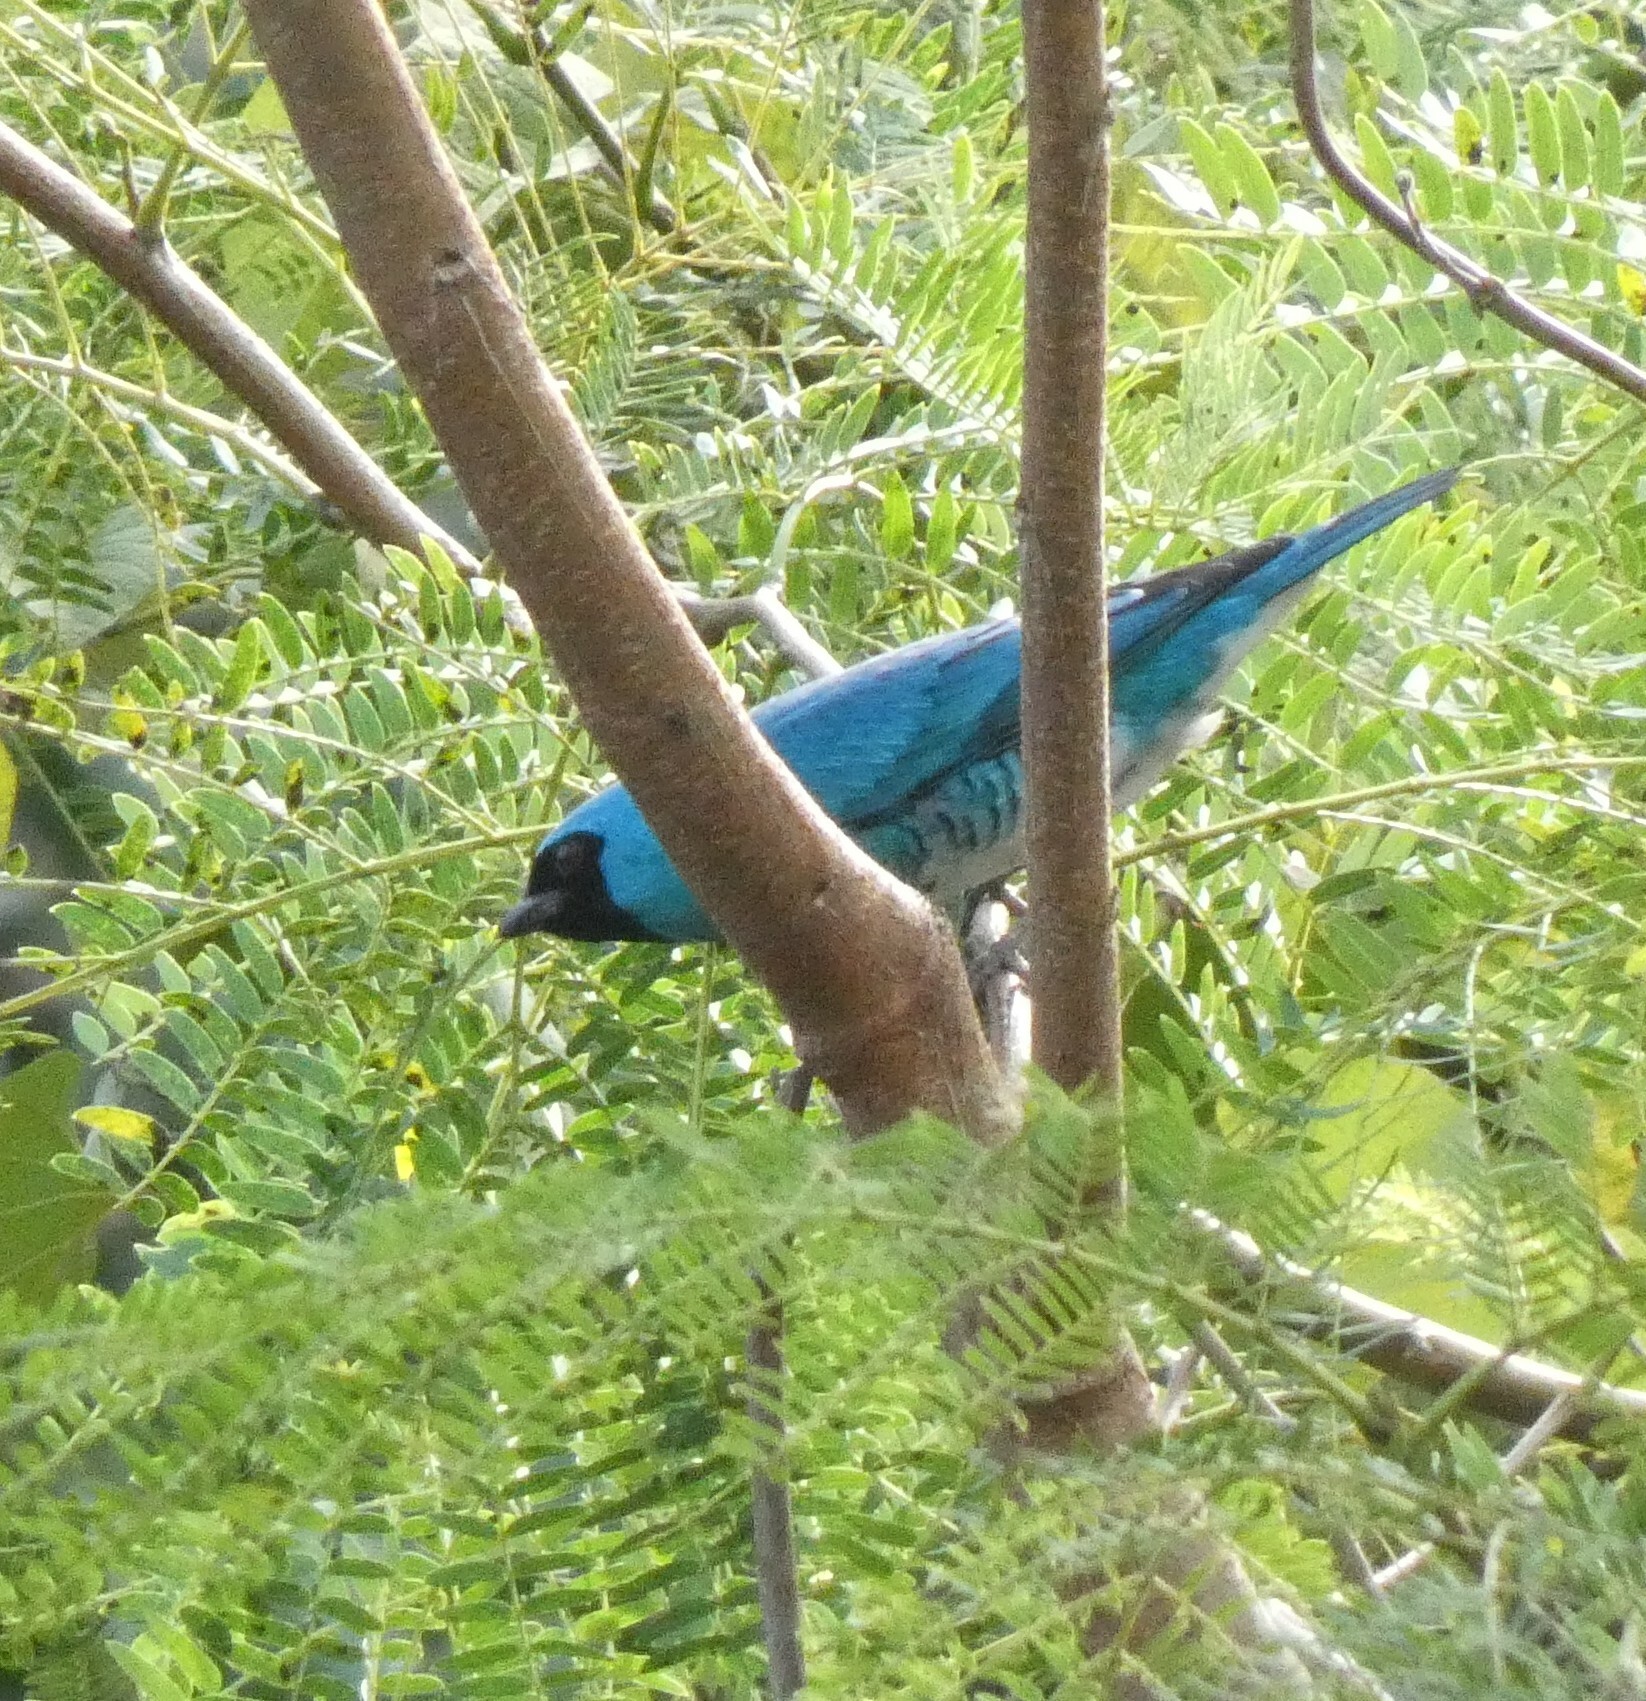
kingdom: Animalia
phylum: Chordata
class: Aves
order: Passeriformes
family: Thraupidae
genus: Tersina
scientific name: Tersina viridis
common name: Swallow tanager
